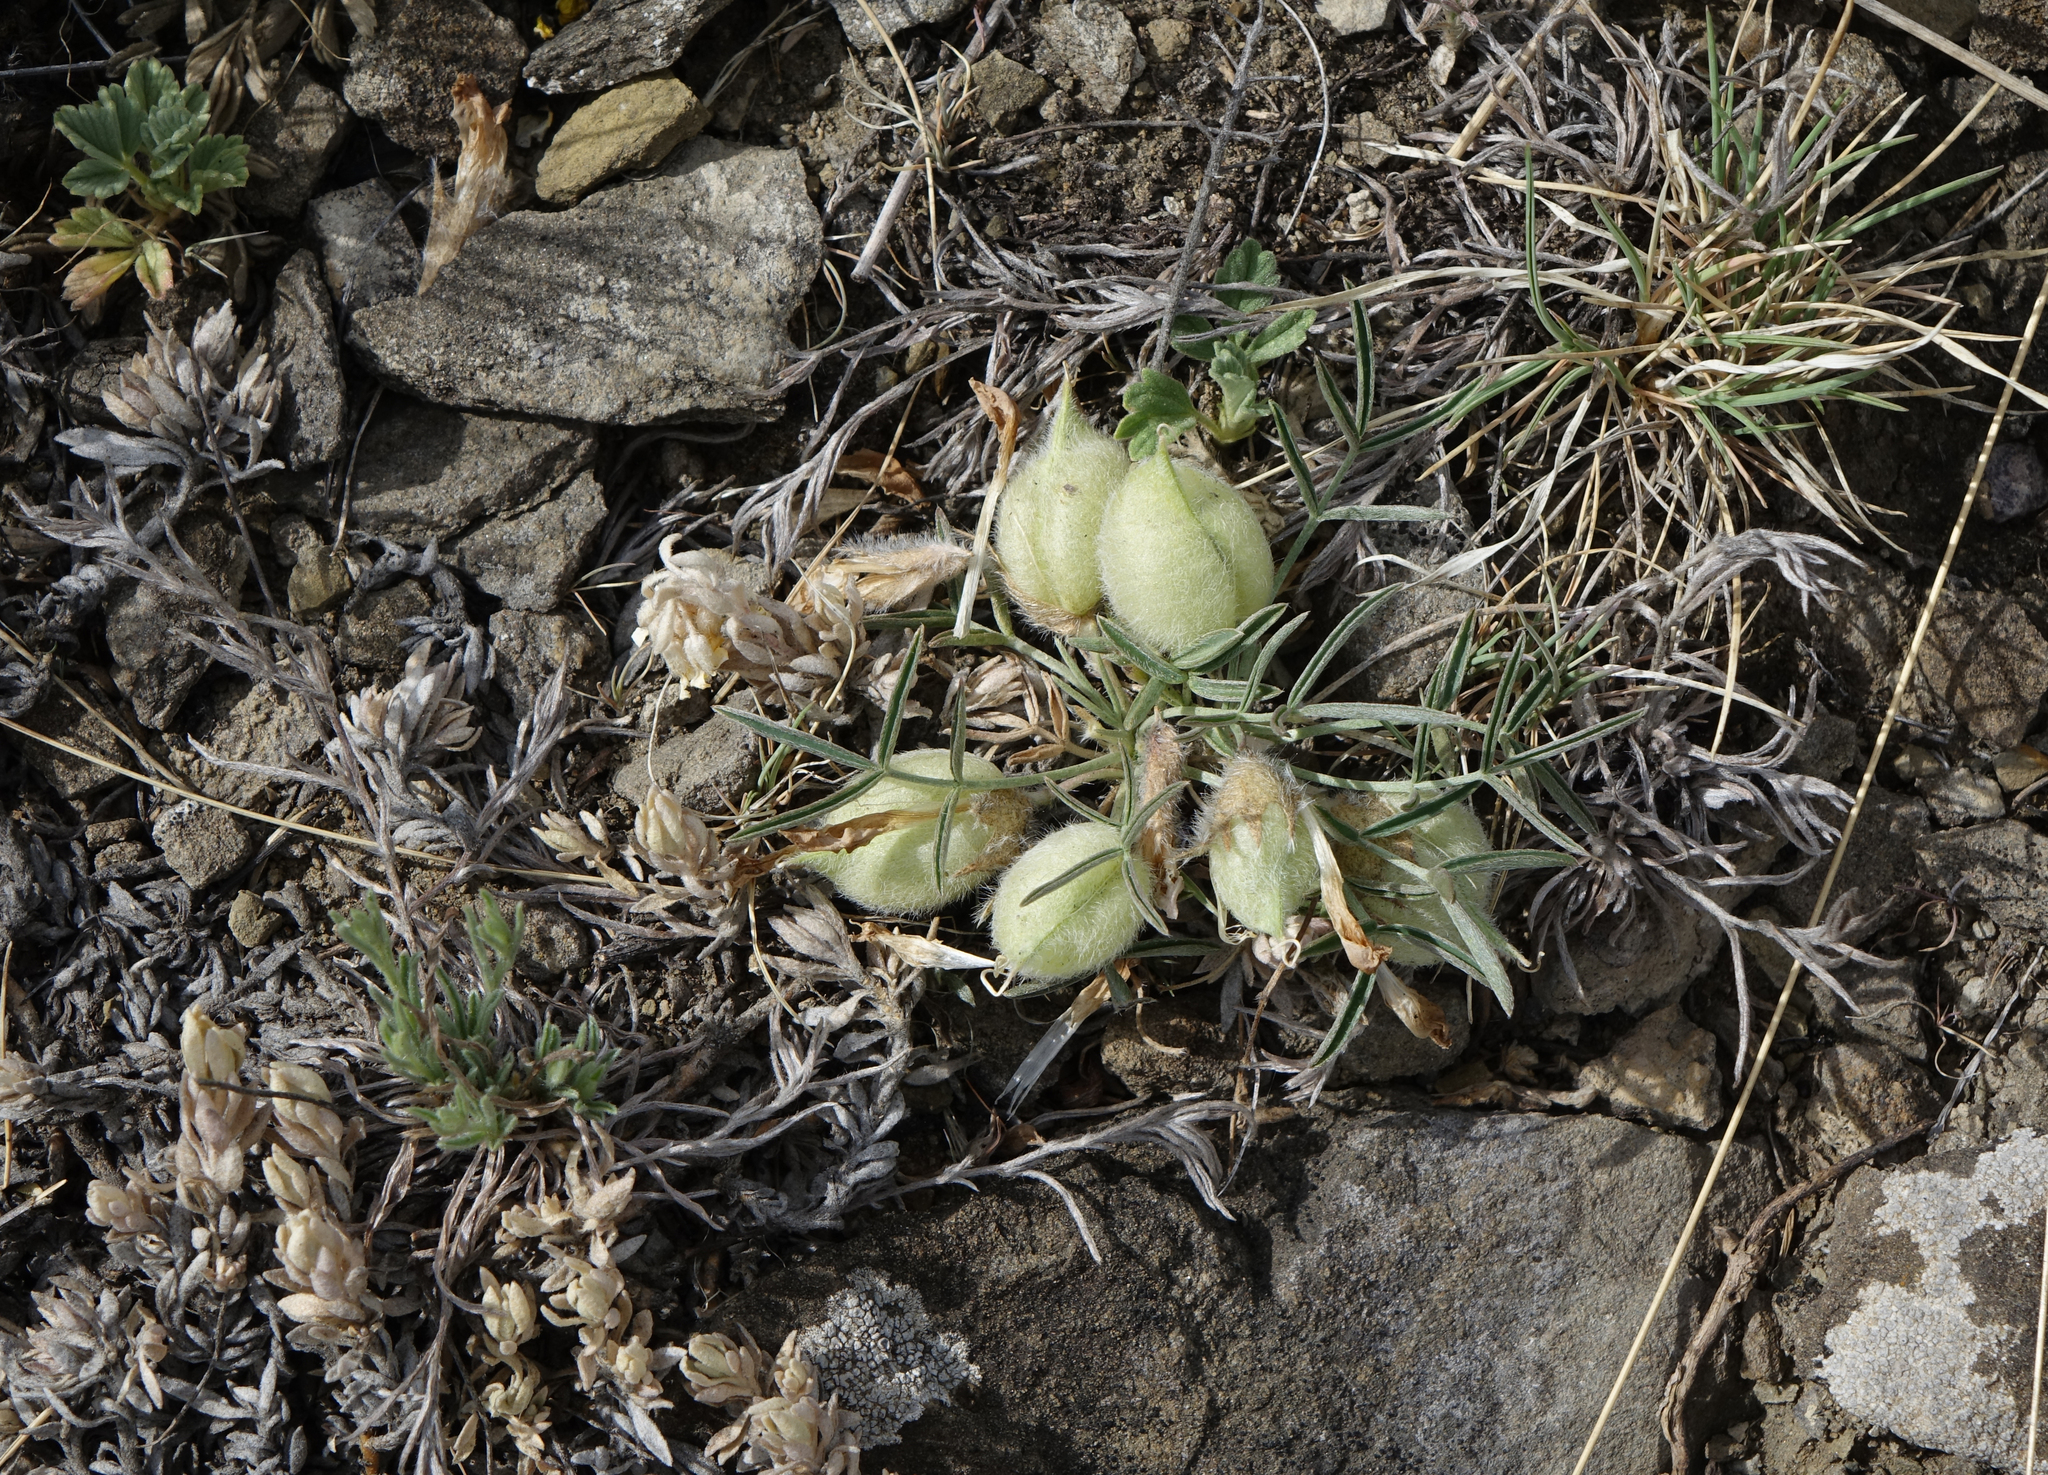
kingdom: Plantae
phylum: Tracheophyta
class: Magnoliopsida
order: Fabales
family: Fabaceae
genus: Oxytropis
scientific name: Oxytropis sobolevskajae
